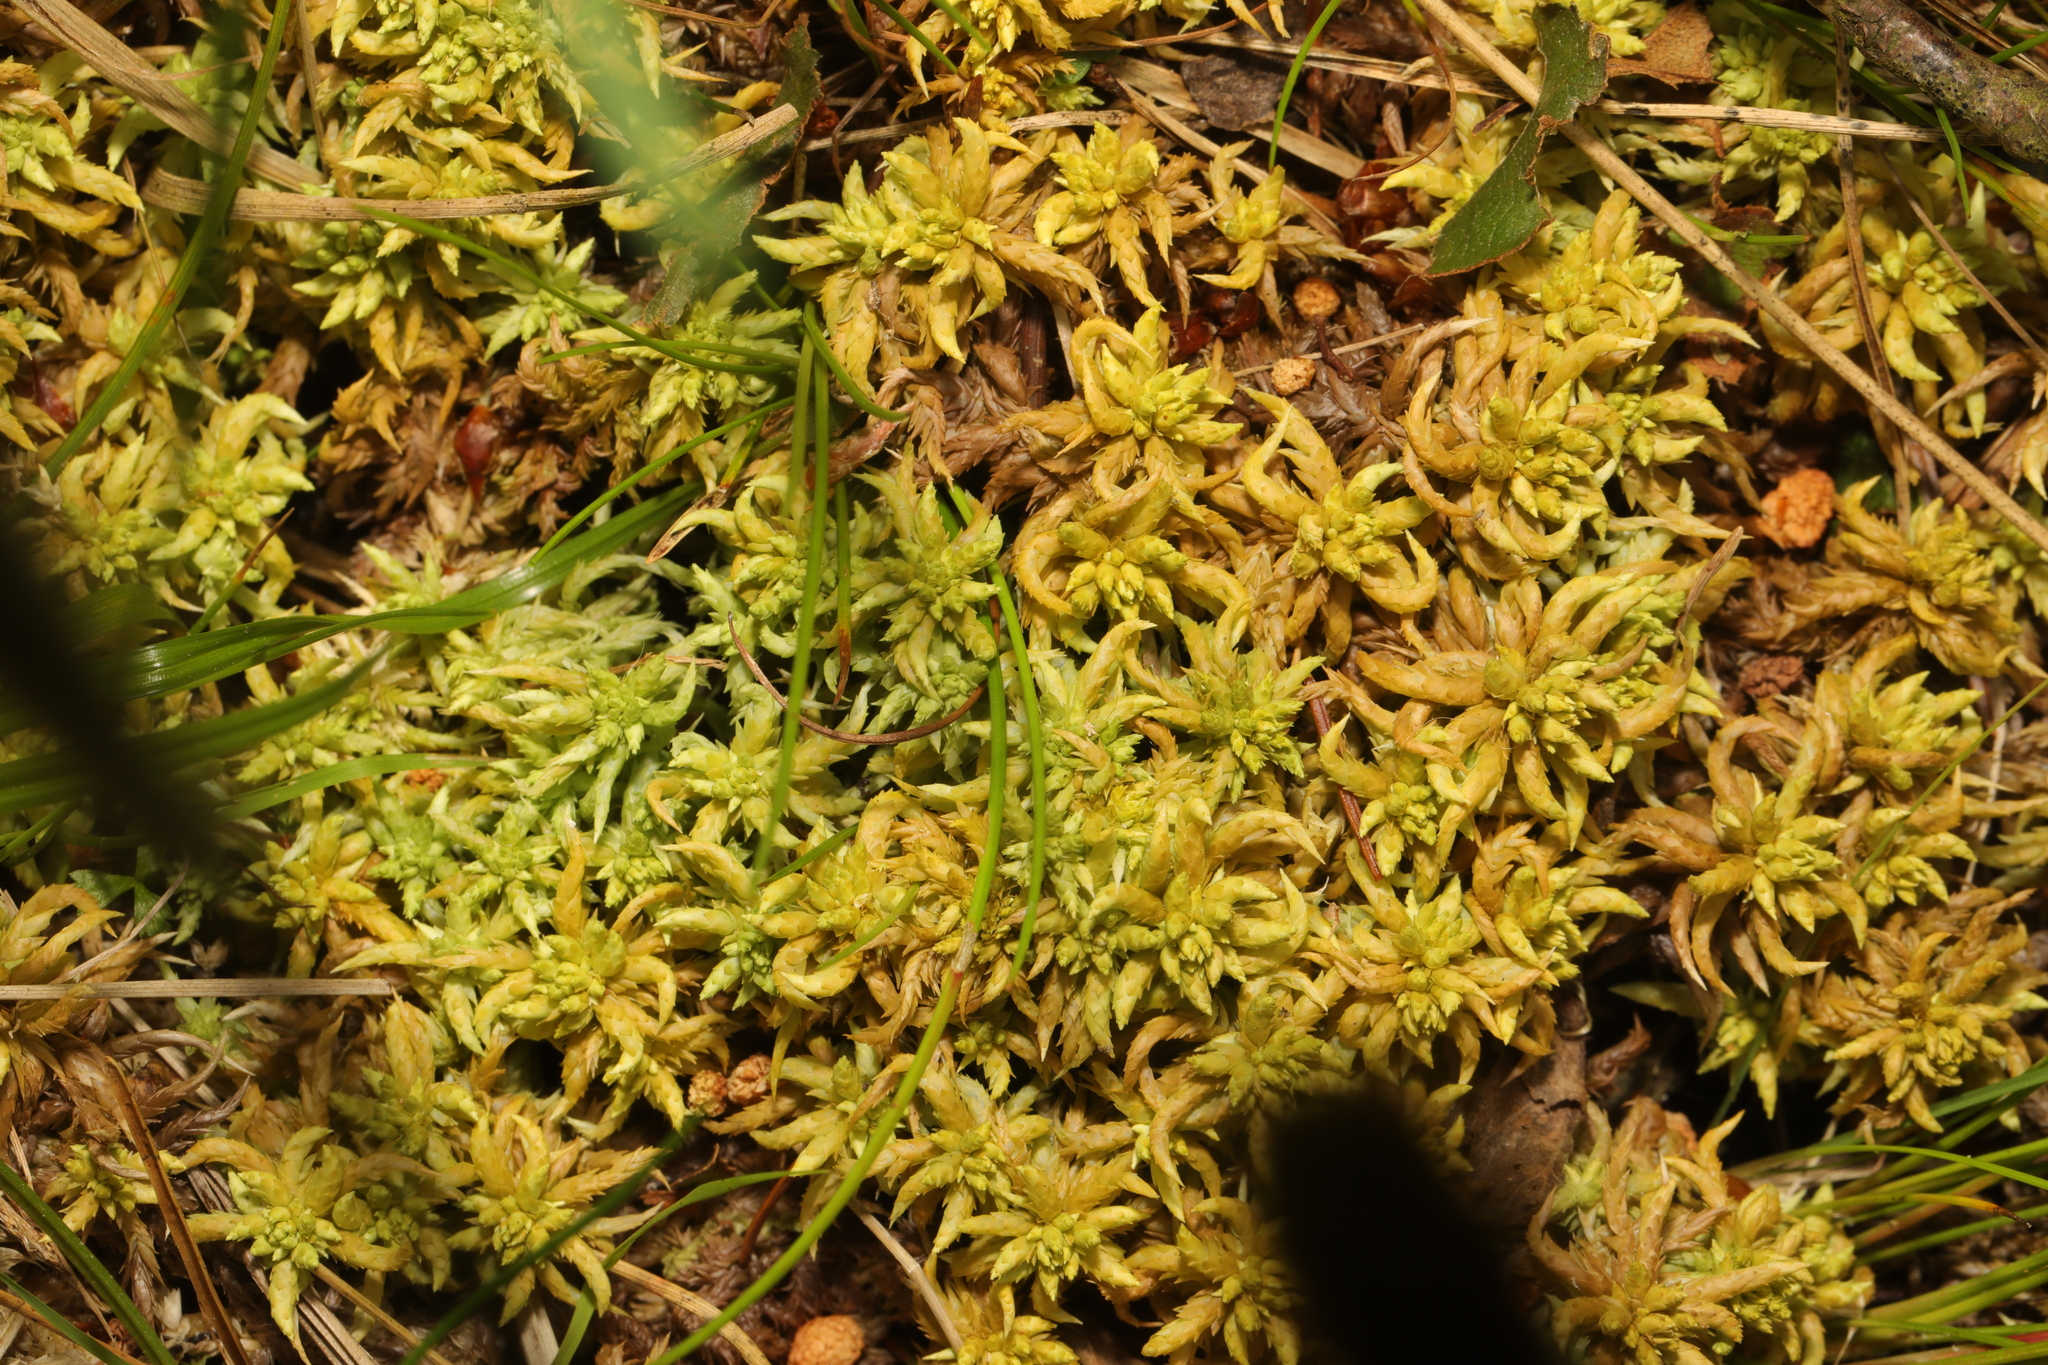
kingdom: Plantae
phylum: Bryophyta
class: Sphagnopsida
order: Sphagnales
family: Sphagnaceae
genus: Sphagnum
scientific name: Sphagnum papillosum
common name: Papillose peat moss
